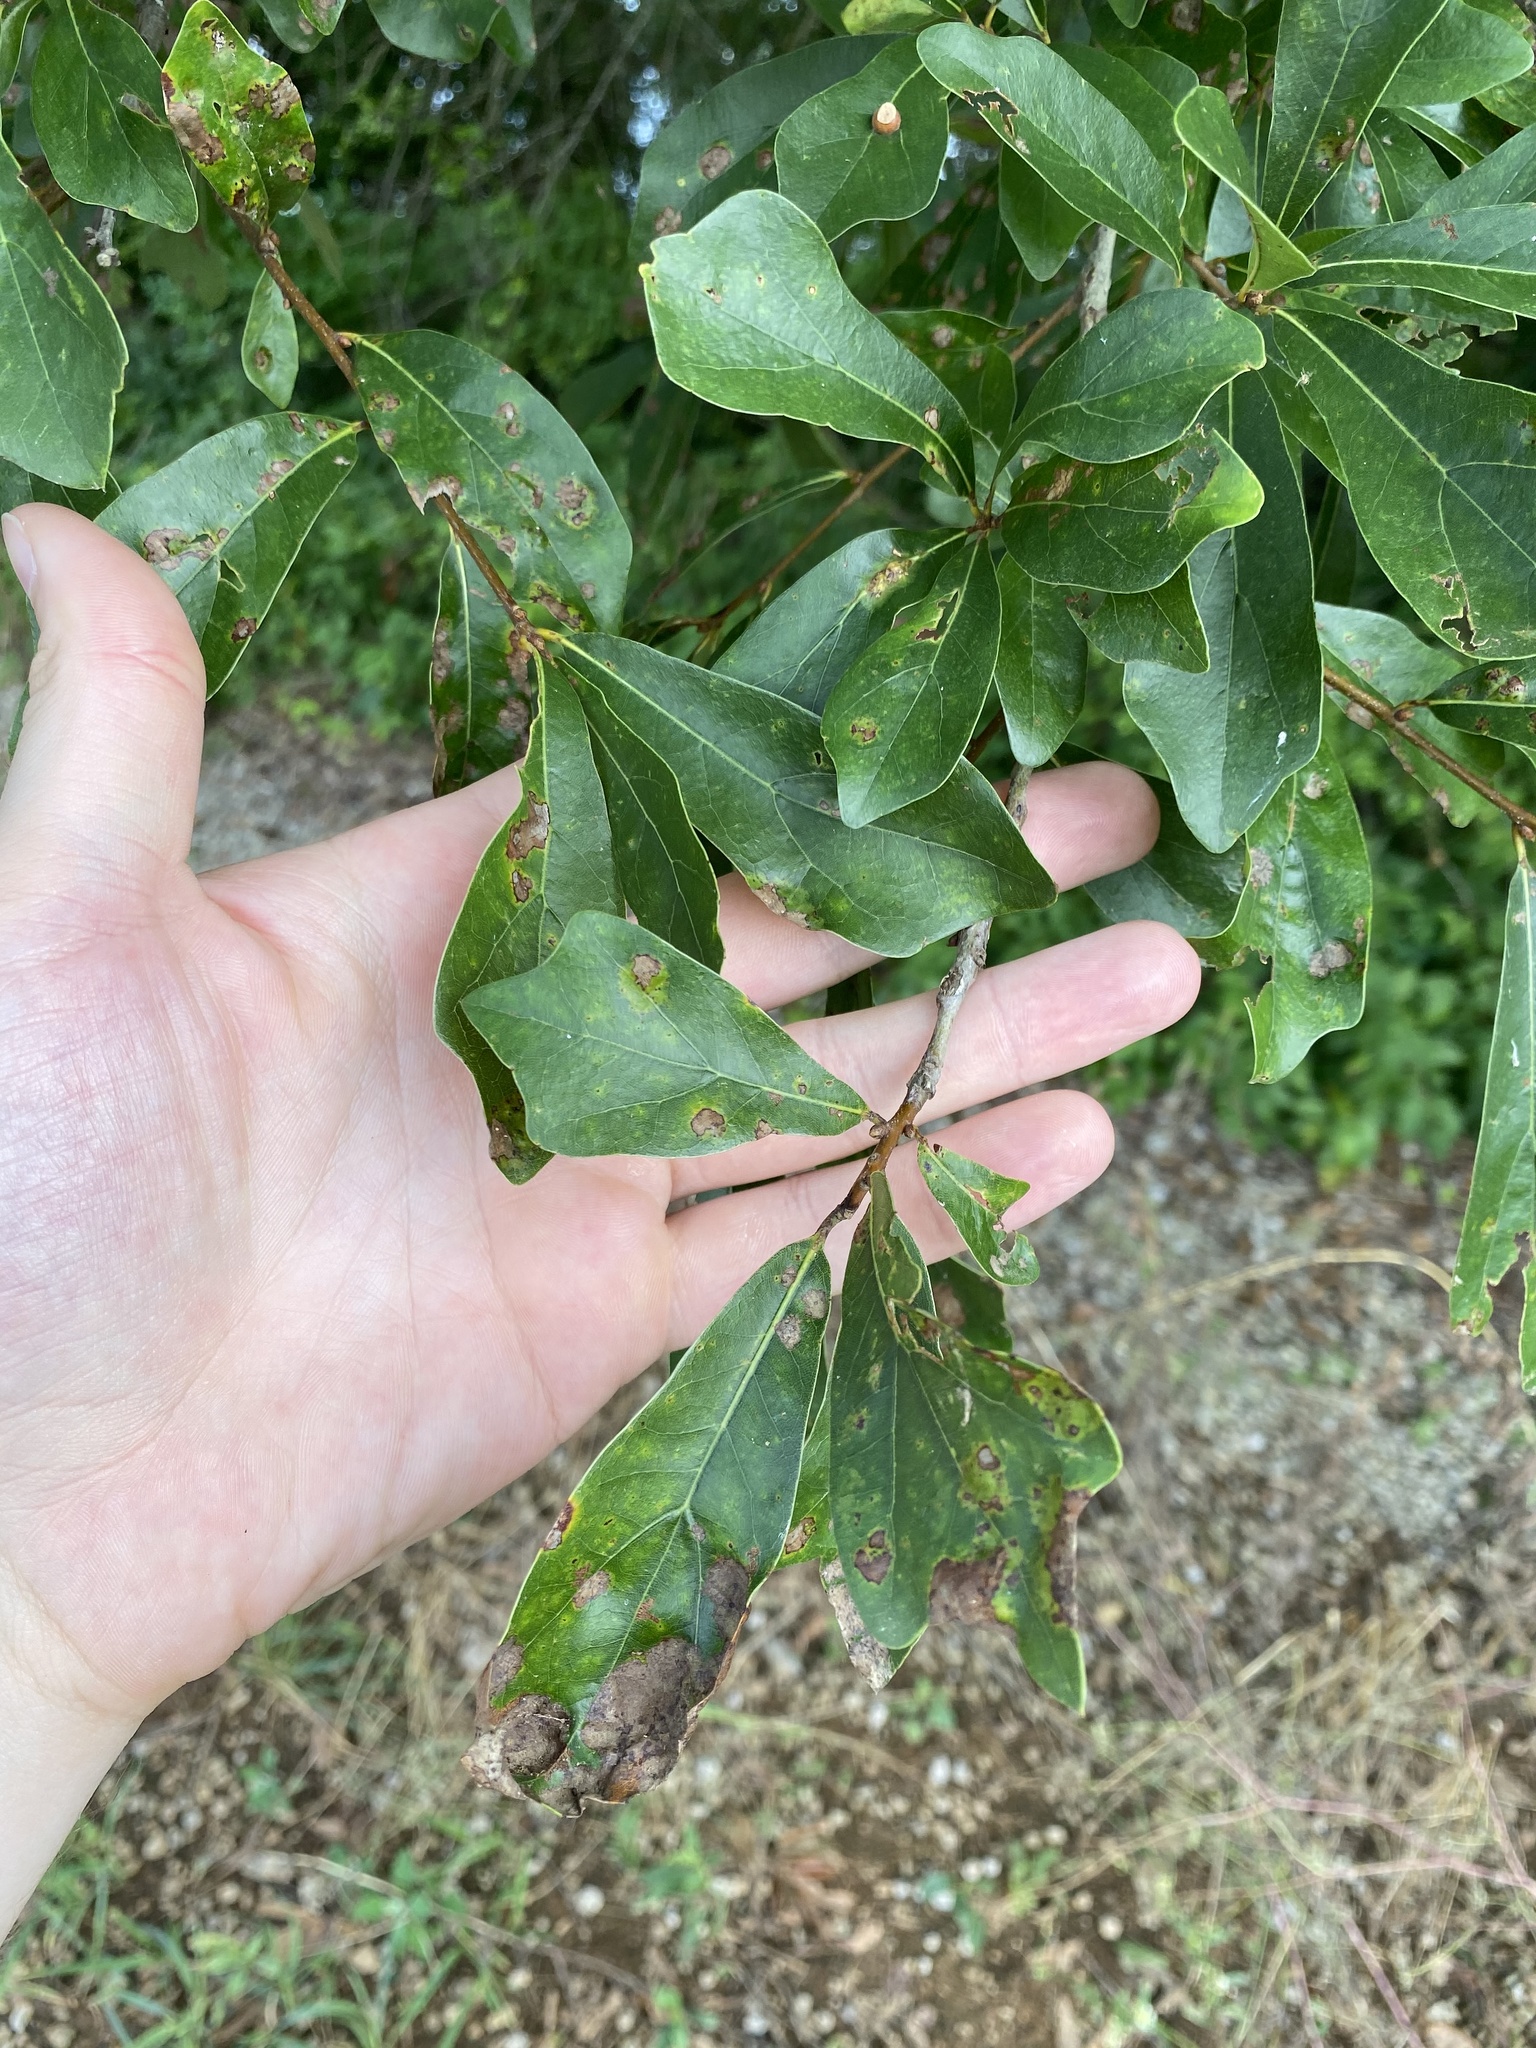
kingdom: Plantae
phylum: Tracheophyta
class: Magnoliopsida
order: Fagales
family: Fagaceae
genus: Quercus
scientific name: Quercus nigra
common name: Water oak
